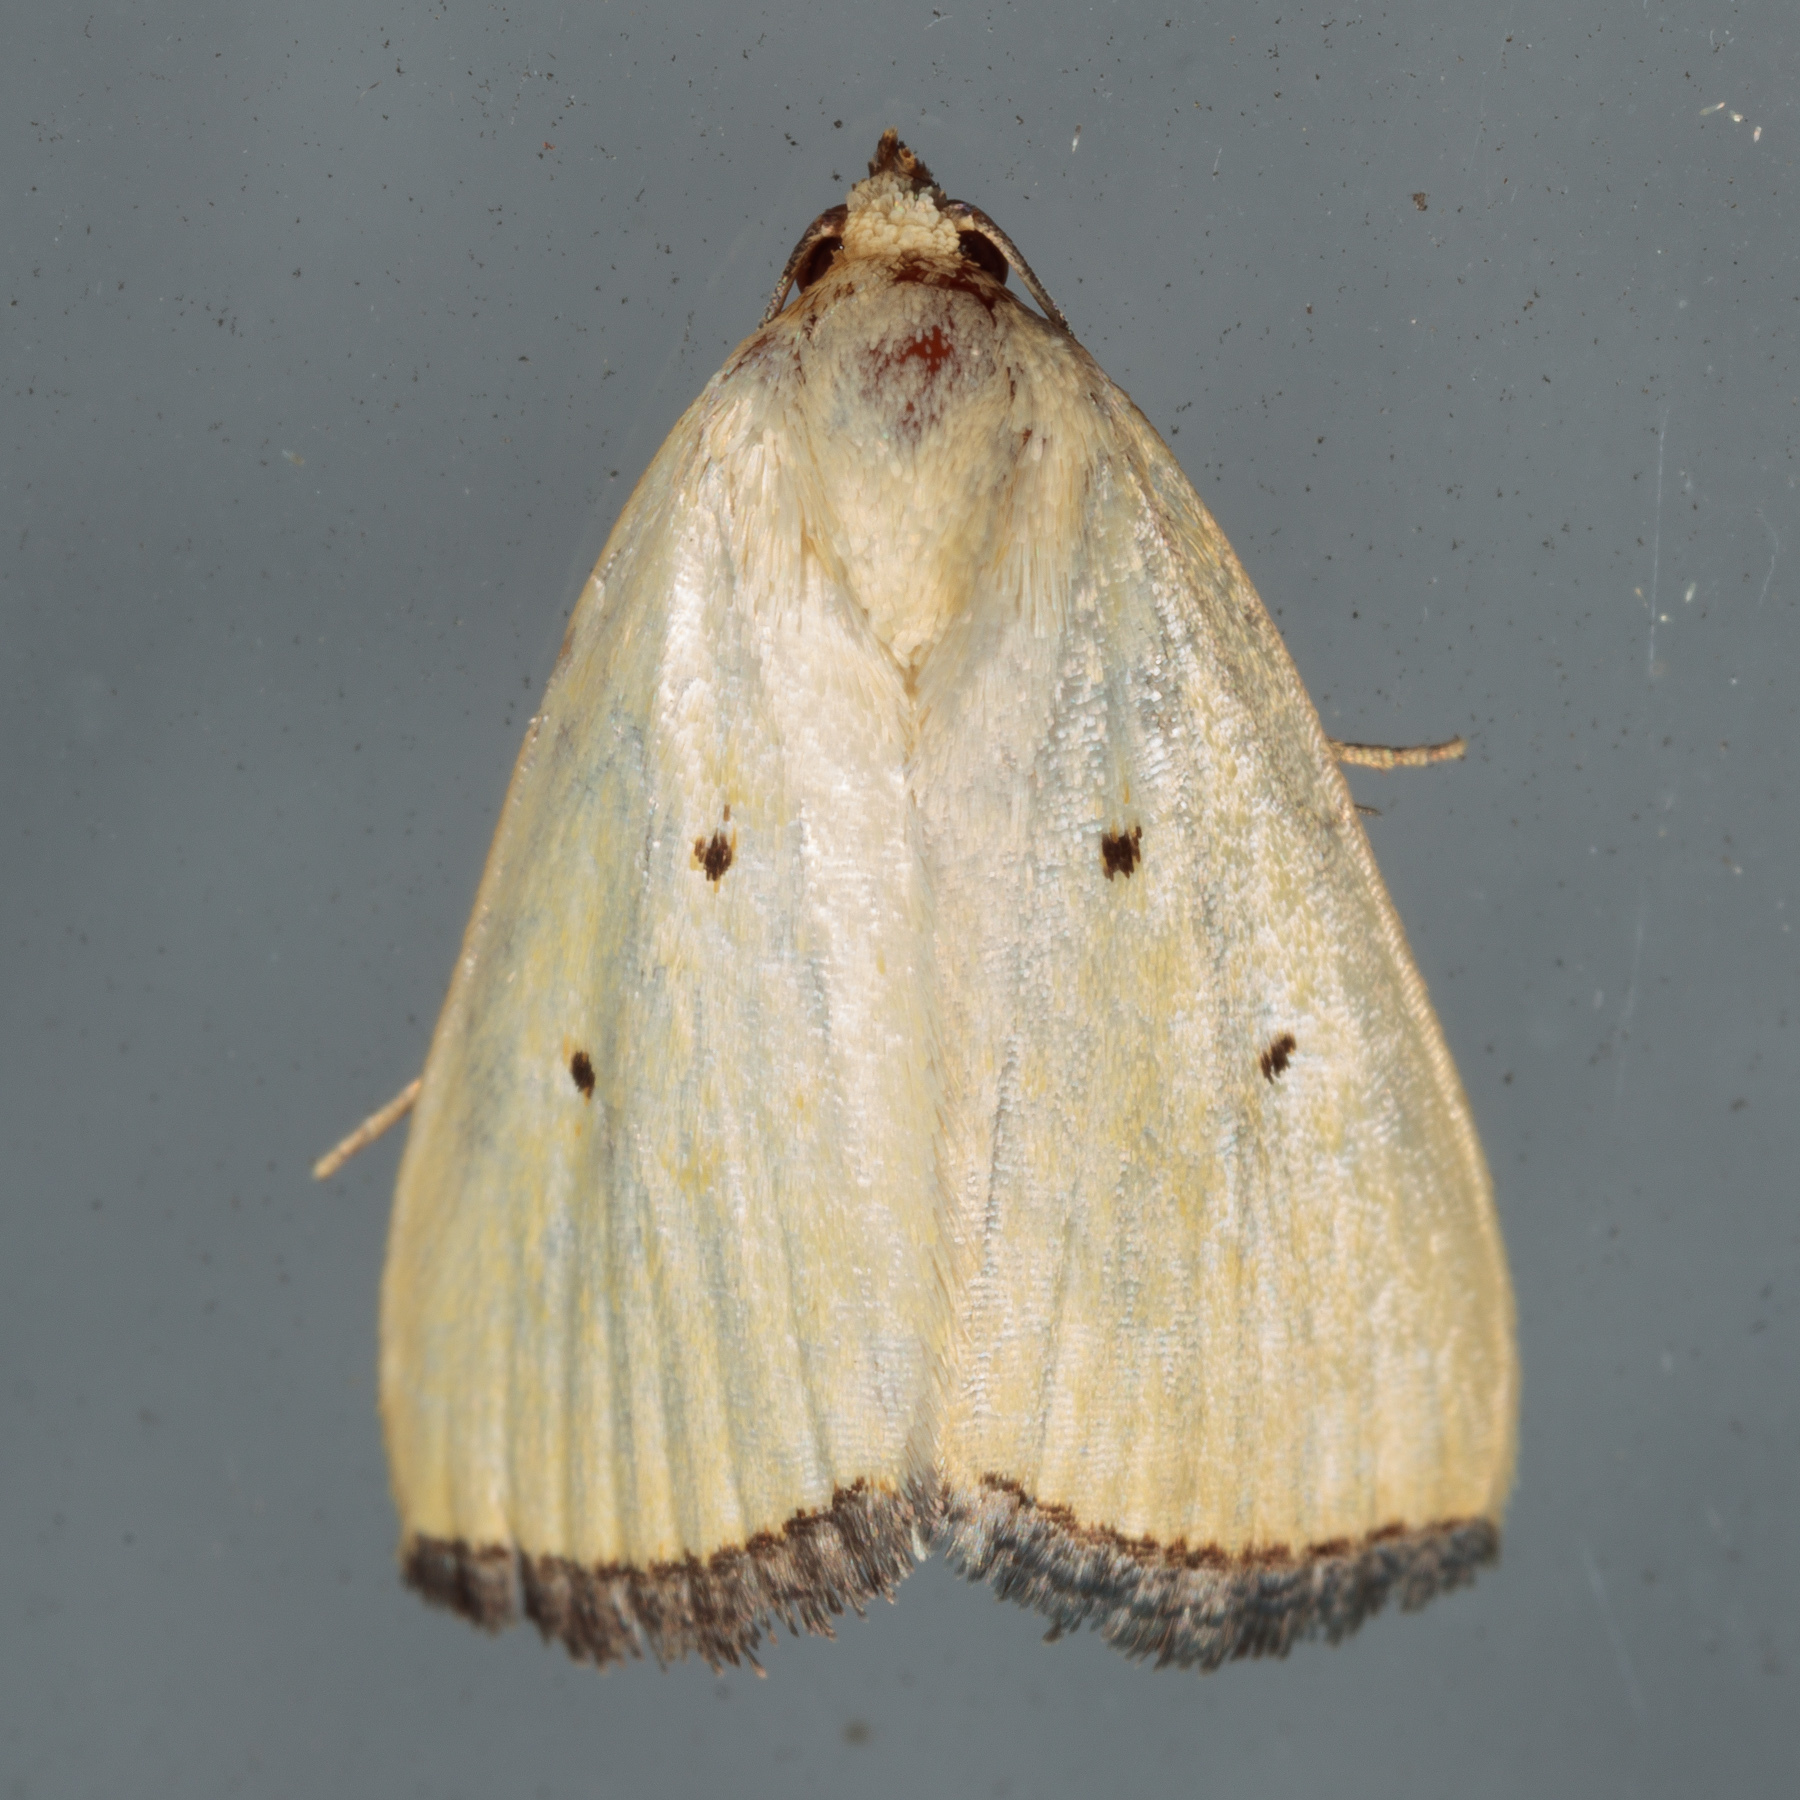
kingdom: Animalia
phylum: Arthropoda
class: Insecta
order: Lepidoptera
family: Noctuidae
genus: Marimatha
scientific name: Marimatha nigrofimbria
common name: Black-bordered lemon moth
